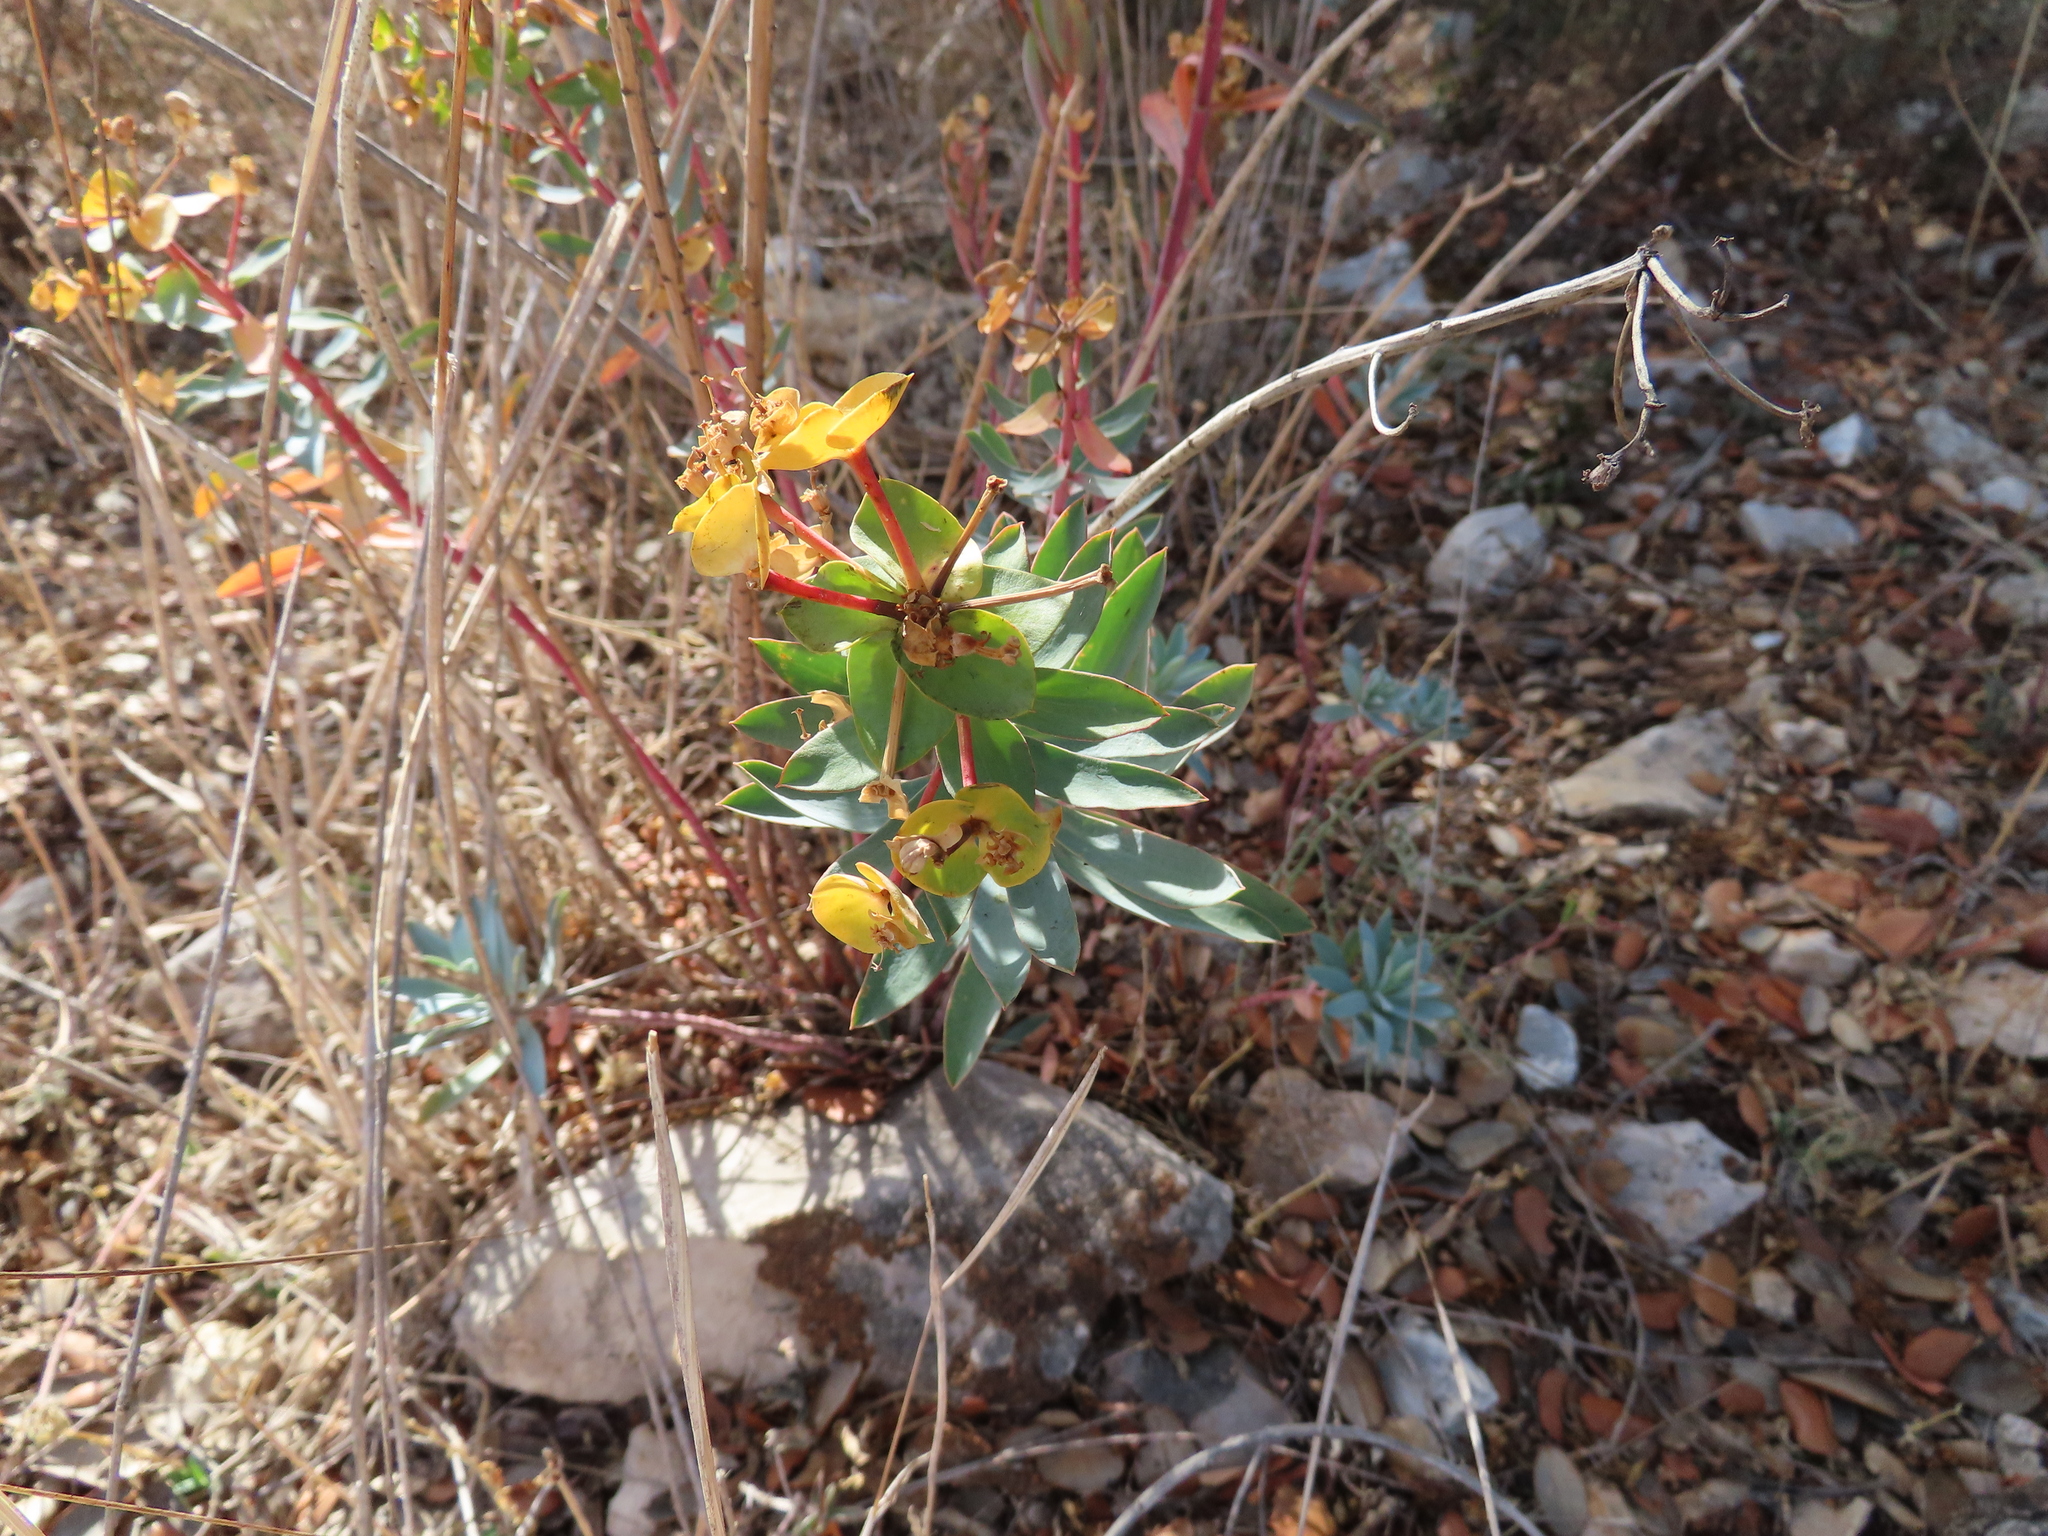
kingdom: Plantae
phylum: Tracheophyta
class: Magnoliopsida
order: Malpighiales
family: Euphorbiaceae
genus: Euphorbia
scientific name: Euphorbia nicaeensis
